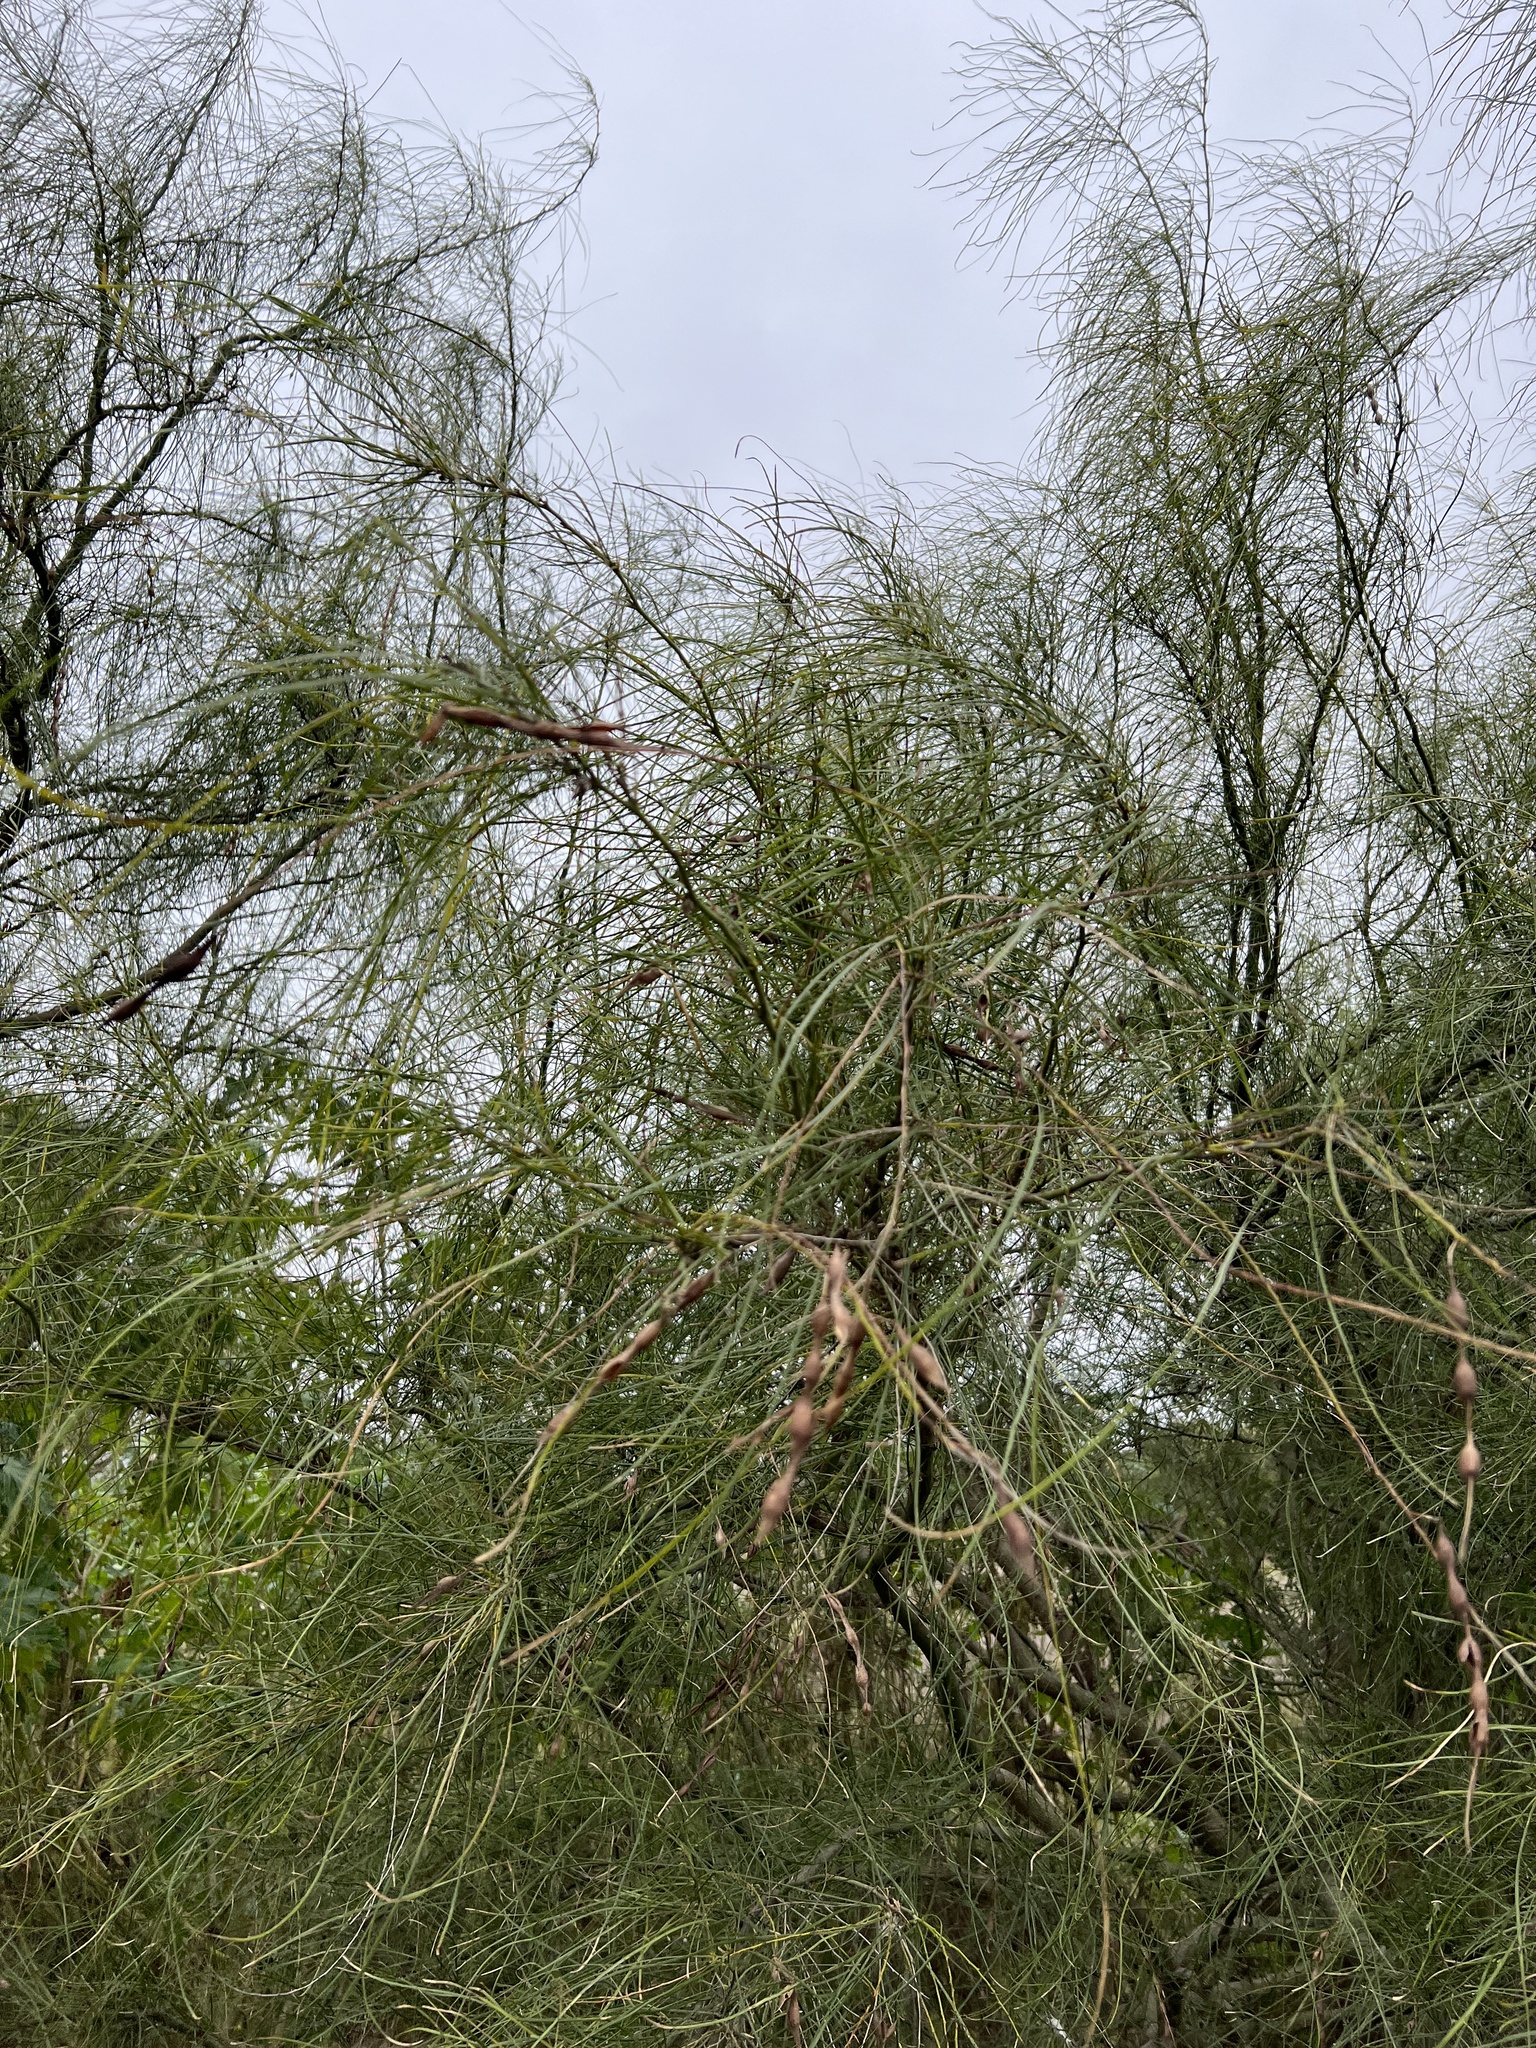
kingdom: Plantae
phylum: Tracheophyta
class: Magnoliopsida
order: Fabales
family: Fabaceae
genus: Parkinsonia
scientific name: Parkinsonia aculeata
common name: Jerusalem thorn
